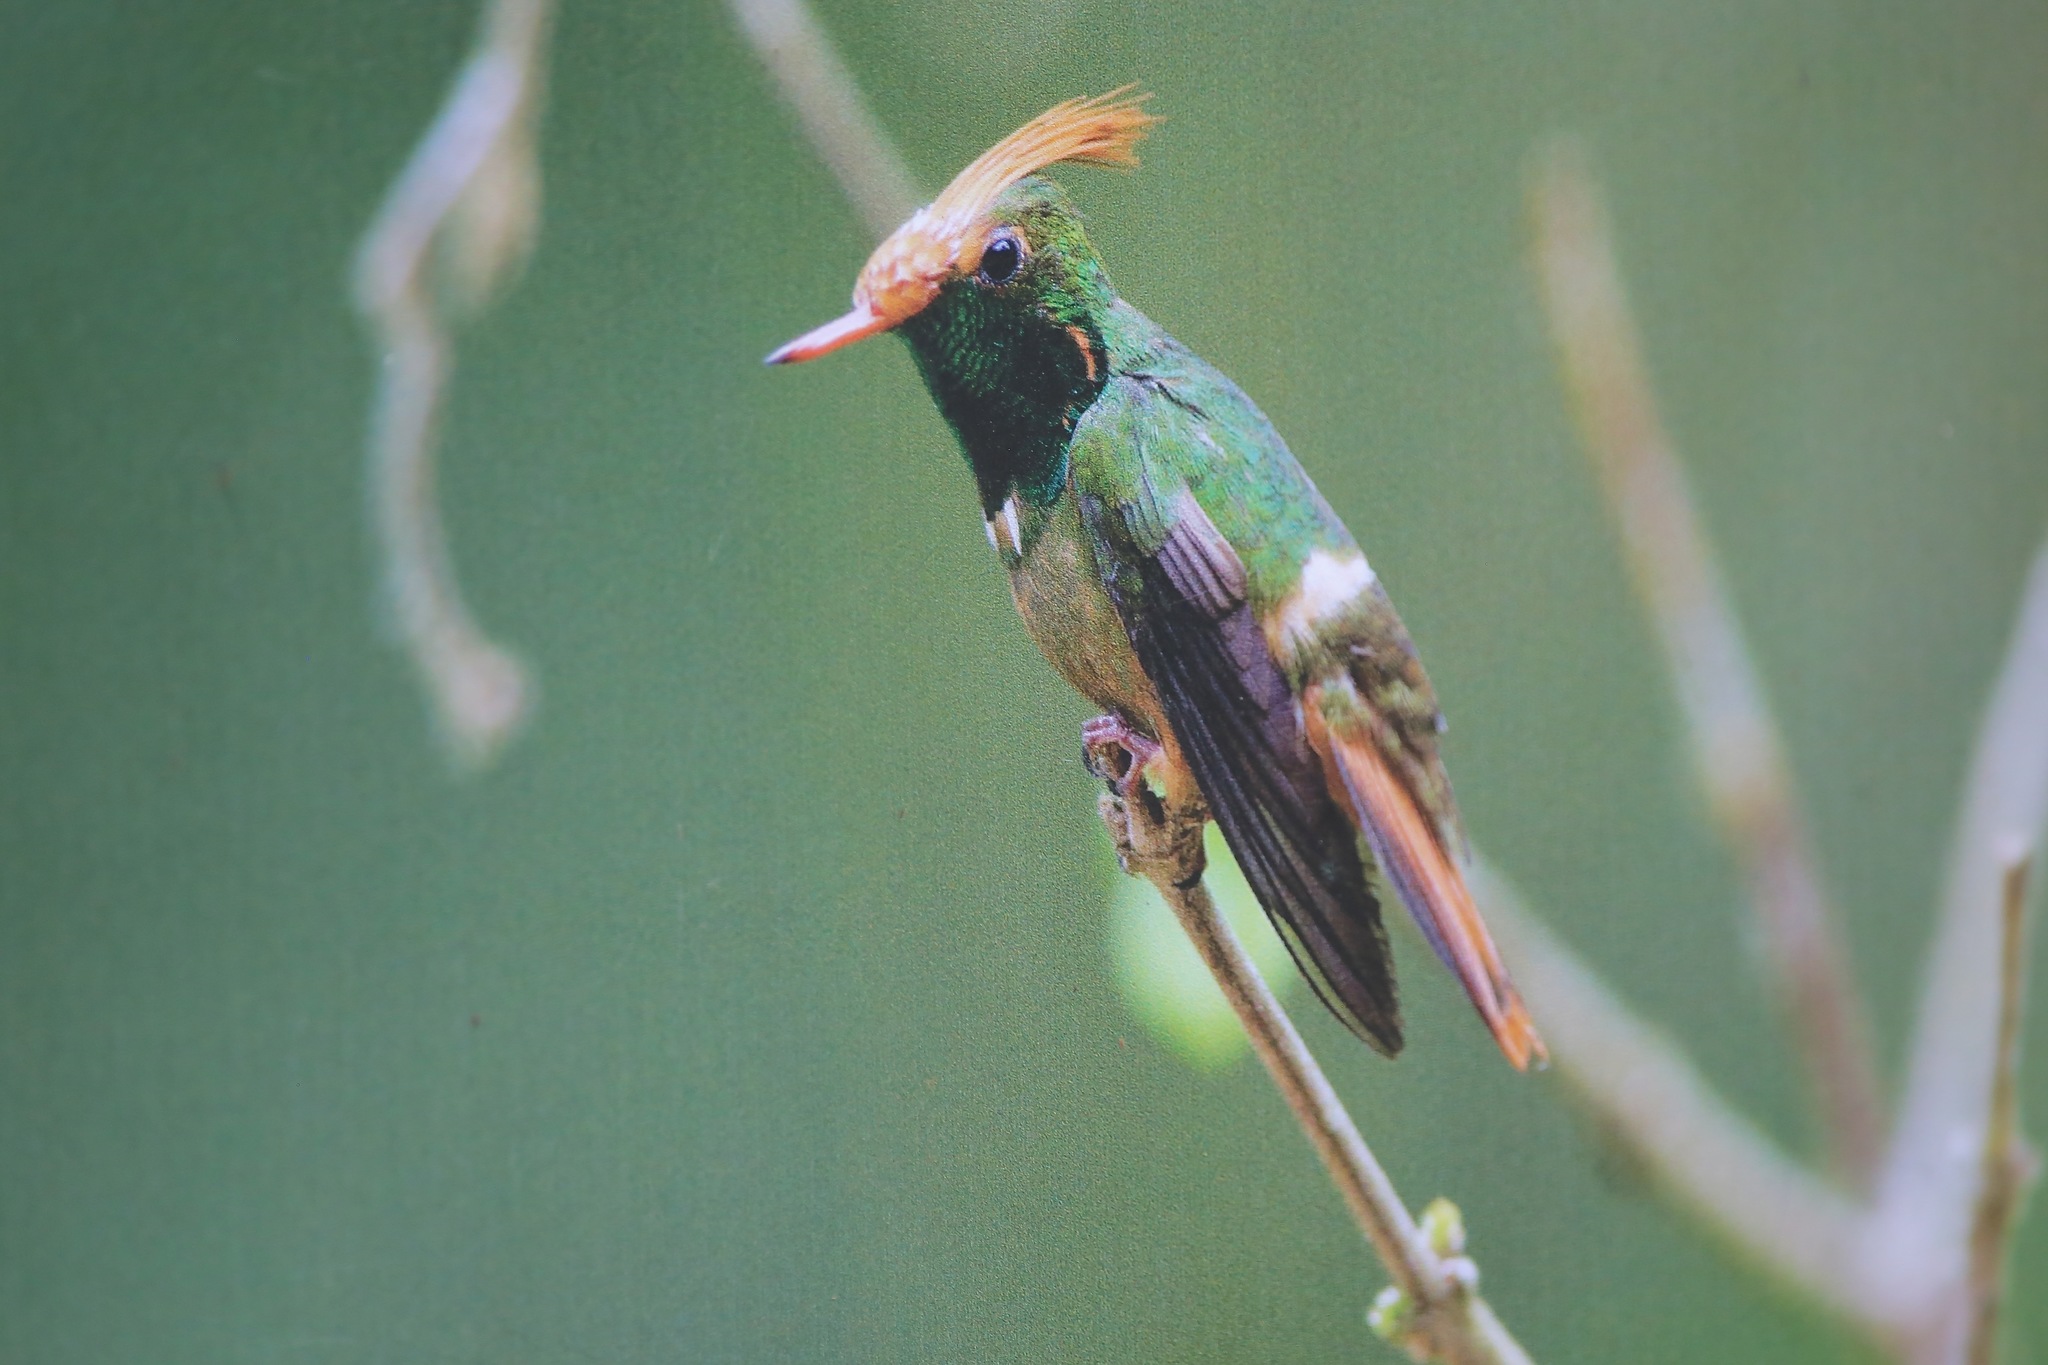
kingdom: Animalia
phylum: Chordata
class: Aves
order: Apodiformes
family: Trochilidae
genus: Lophornis
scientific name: Lophornis delattrei
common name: Rufous-crested coquette
